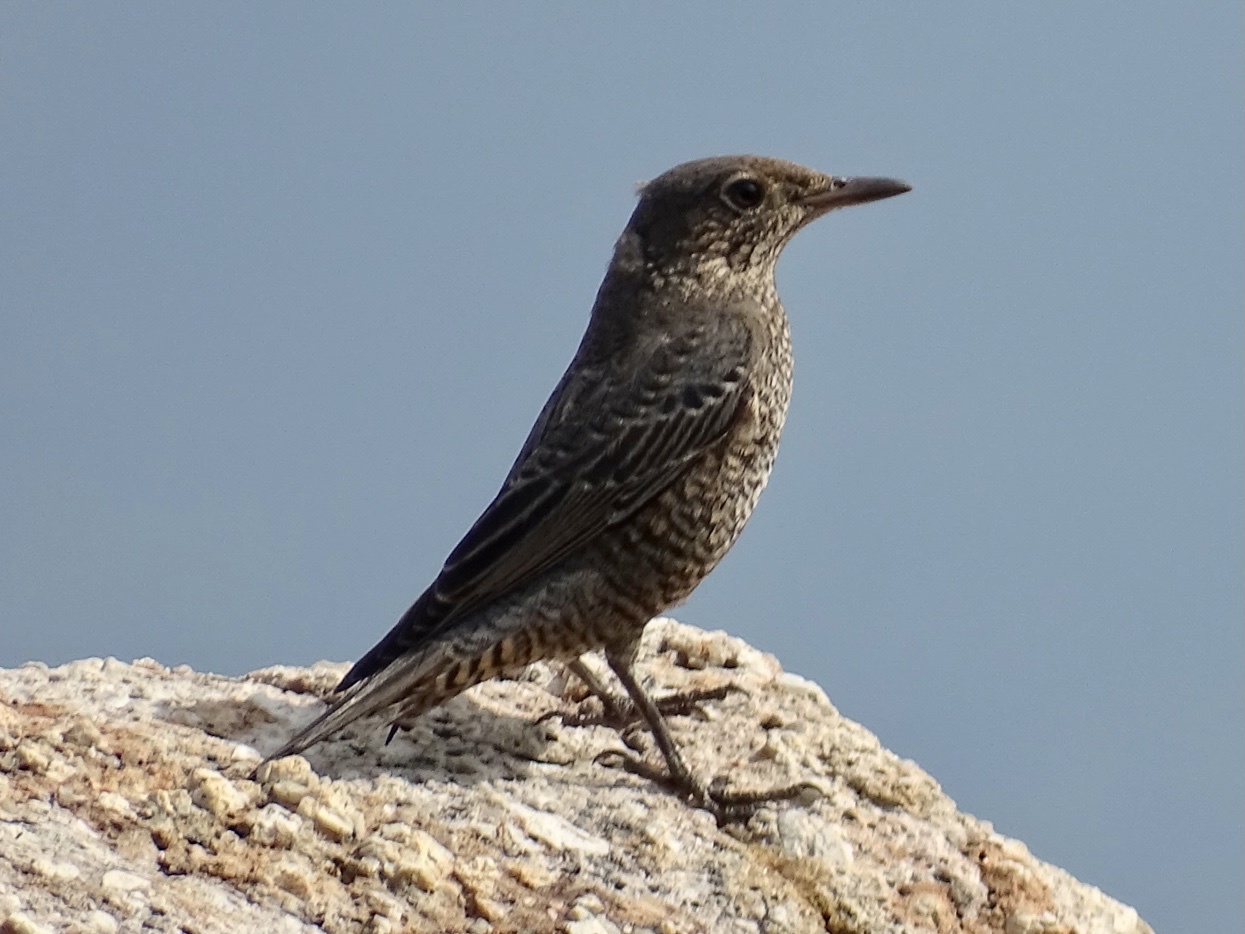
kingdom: Animalia
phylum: Chordata
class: Aves
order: Passeriformes
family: Muscicapidae
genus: Monticola
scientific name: Monticola solitarius
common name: Blue rock thrush
